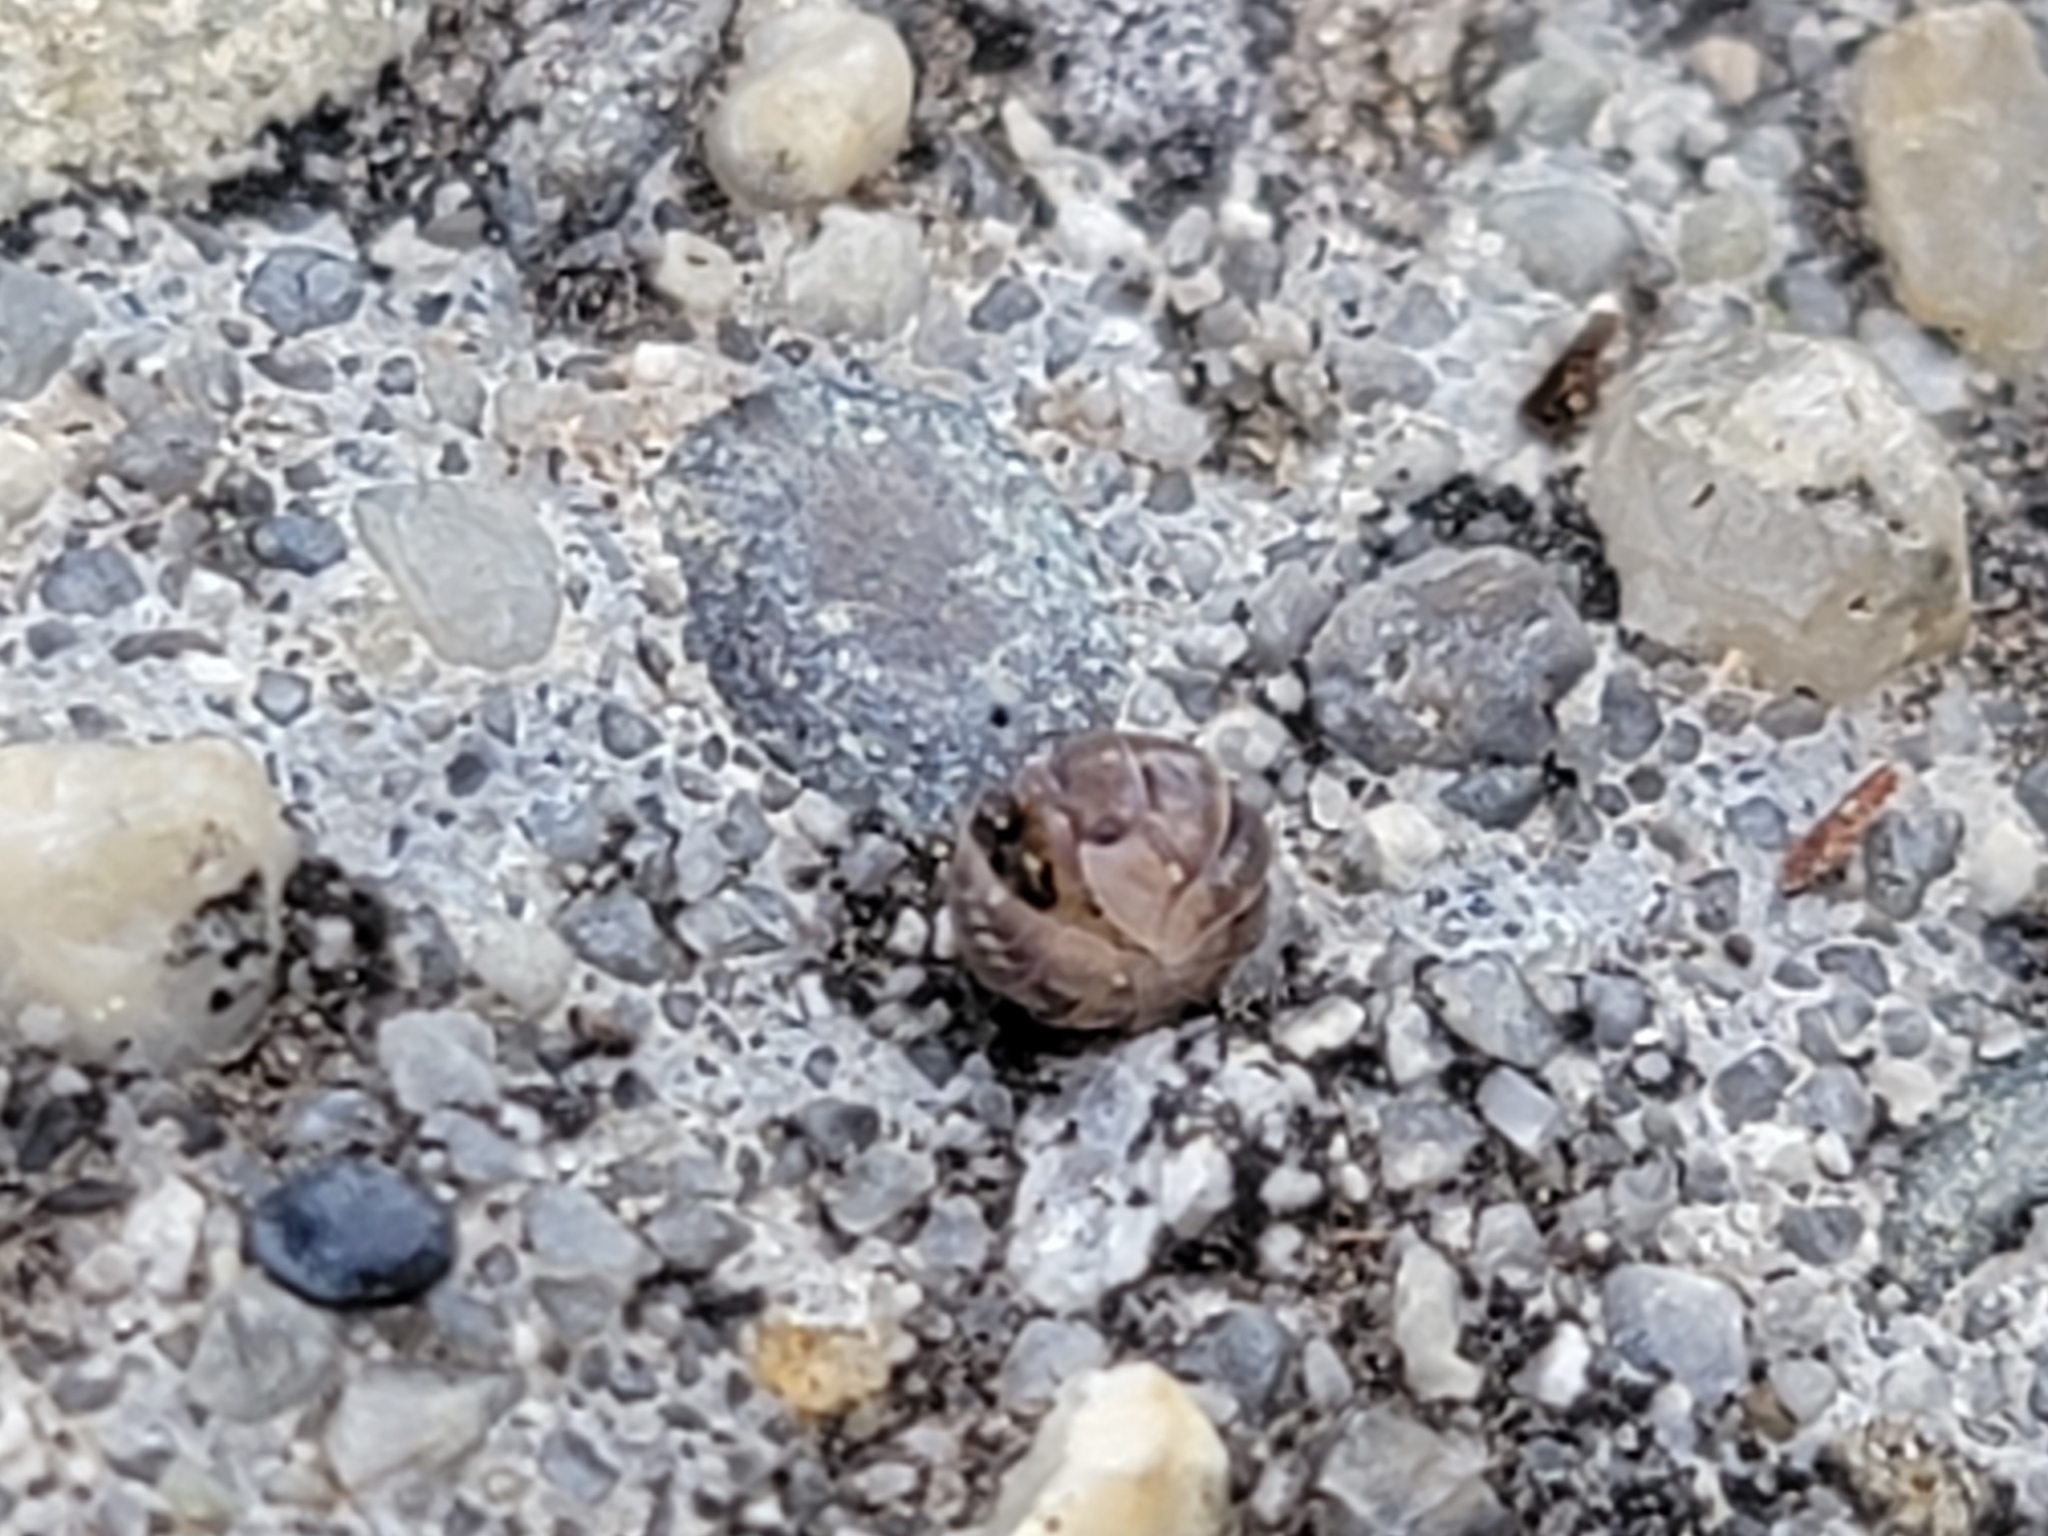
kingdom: Animalia
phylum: Arthropoda
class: Malacostraca
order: Isopoda
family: Armadillidiidae
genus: Armadillidium
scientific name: Armadillidium vulgare
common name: Common pill woodlouse
